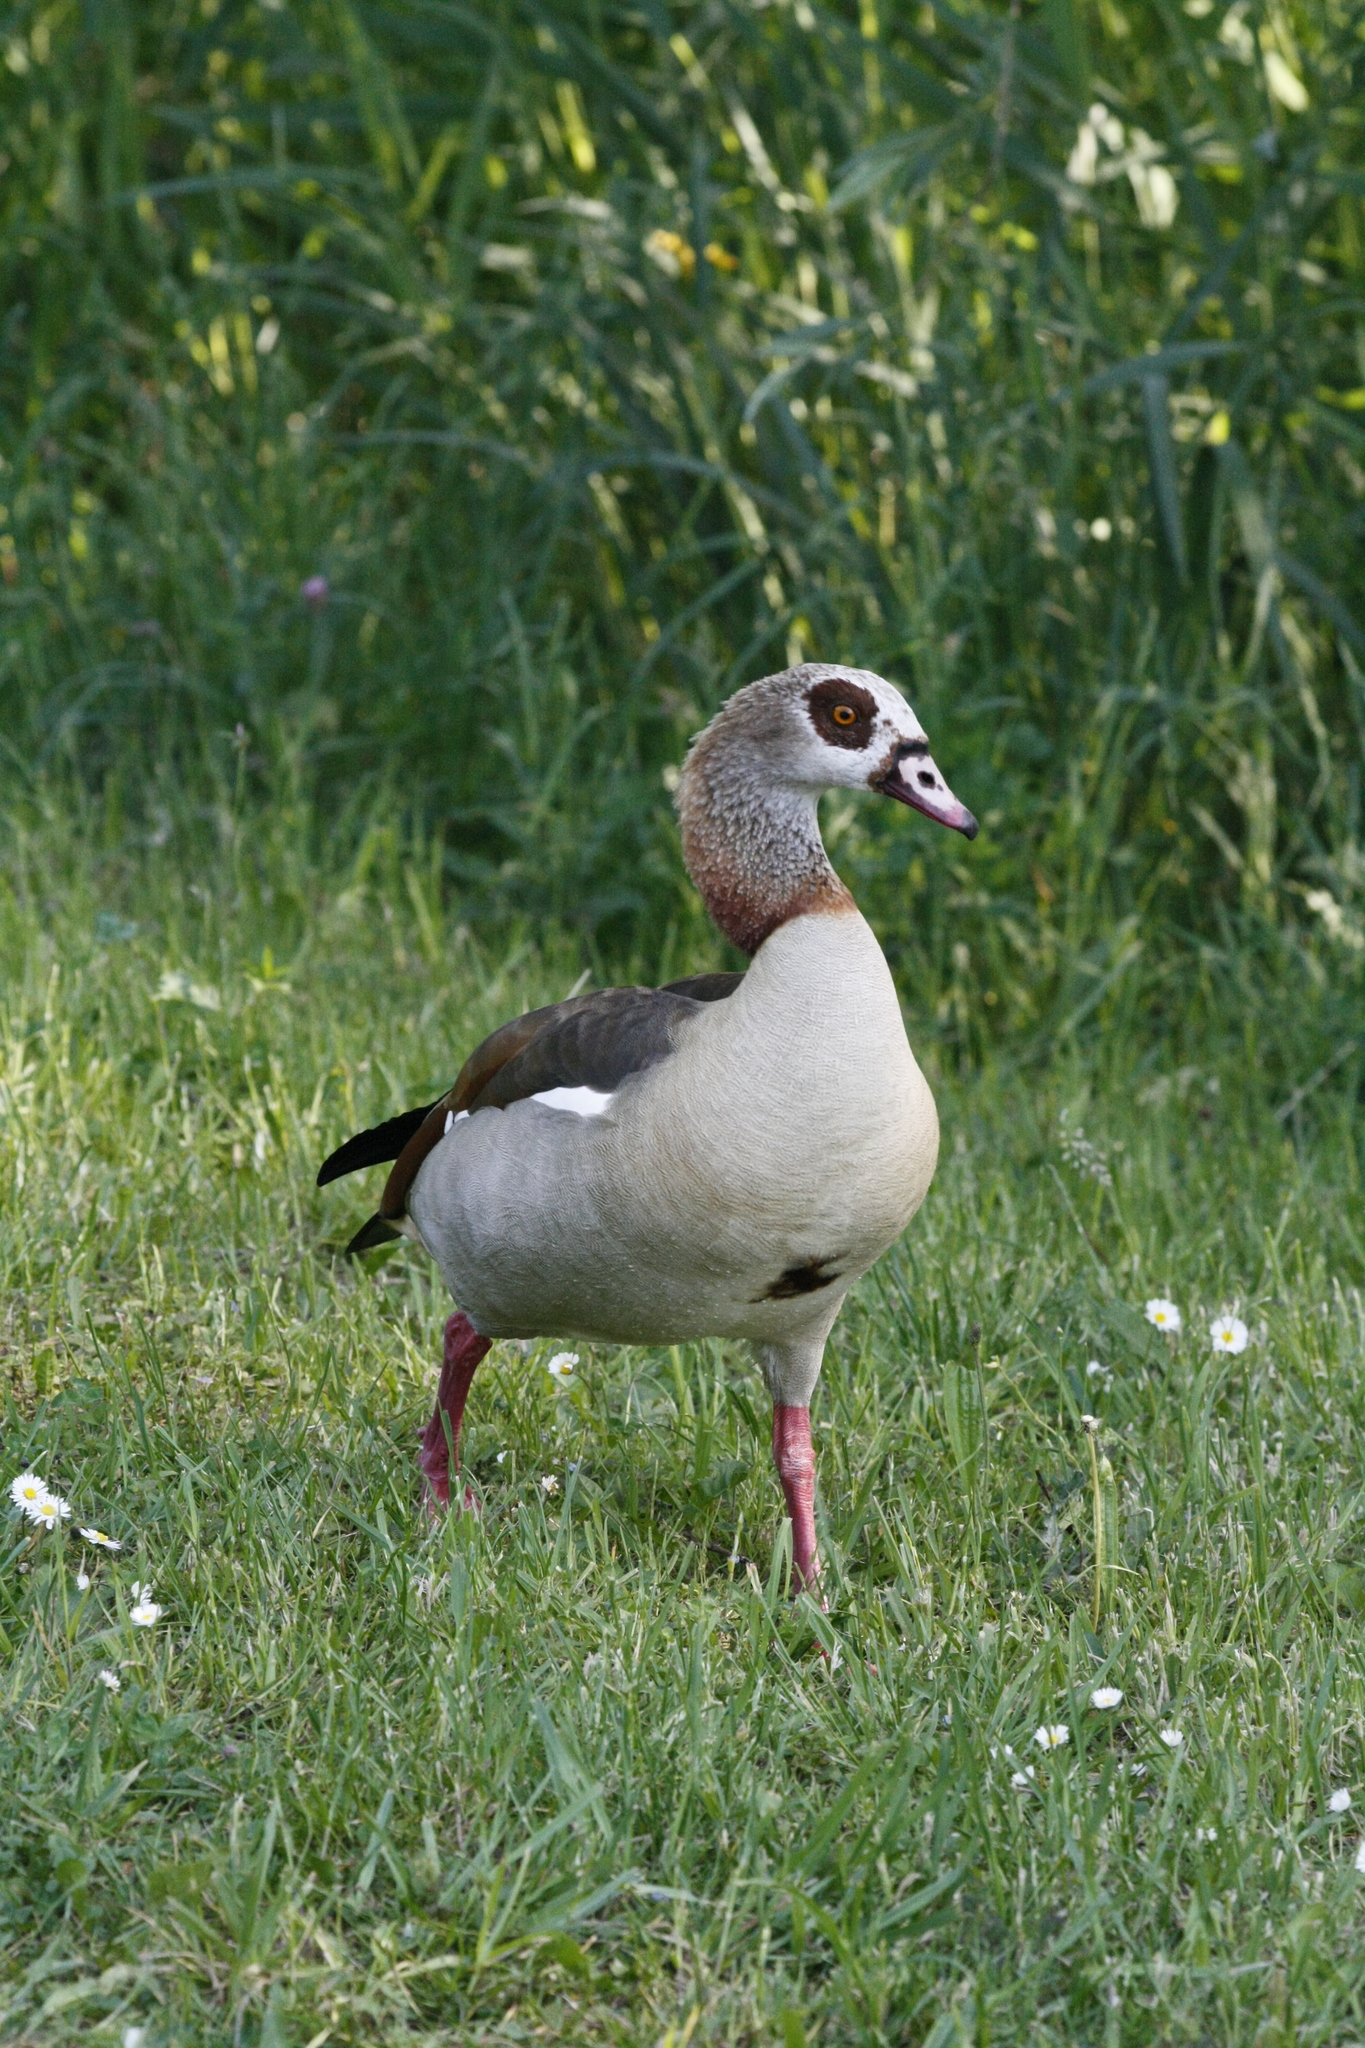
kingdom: Animalia
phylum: Chordata
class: Aves
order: Anseriformes
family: Anatidae
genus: Alopochen
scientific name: Alopochen aegyptiaca
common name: Egyptian goose
